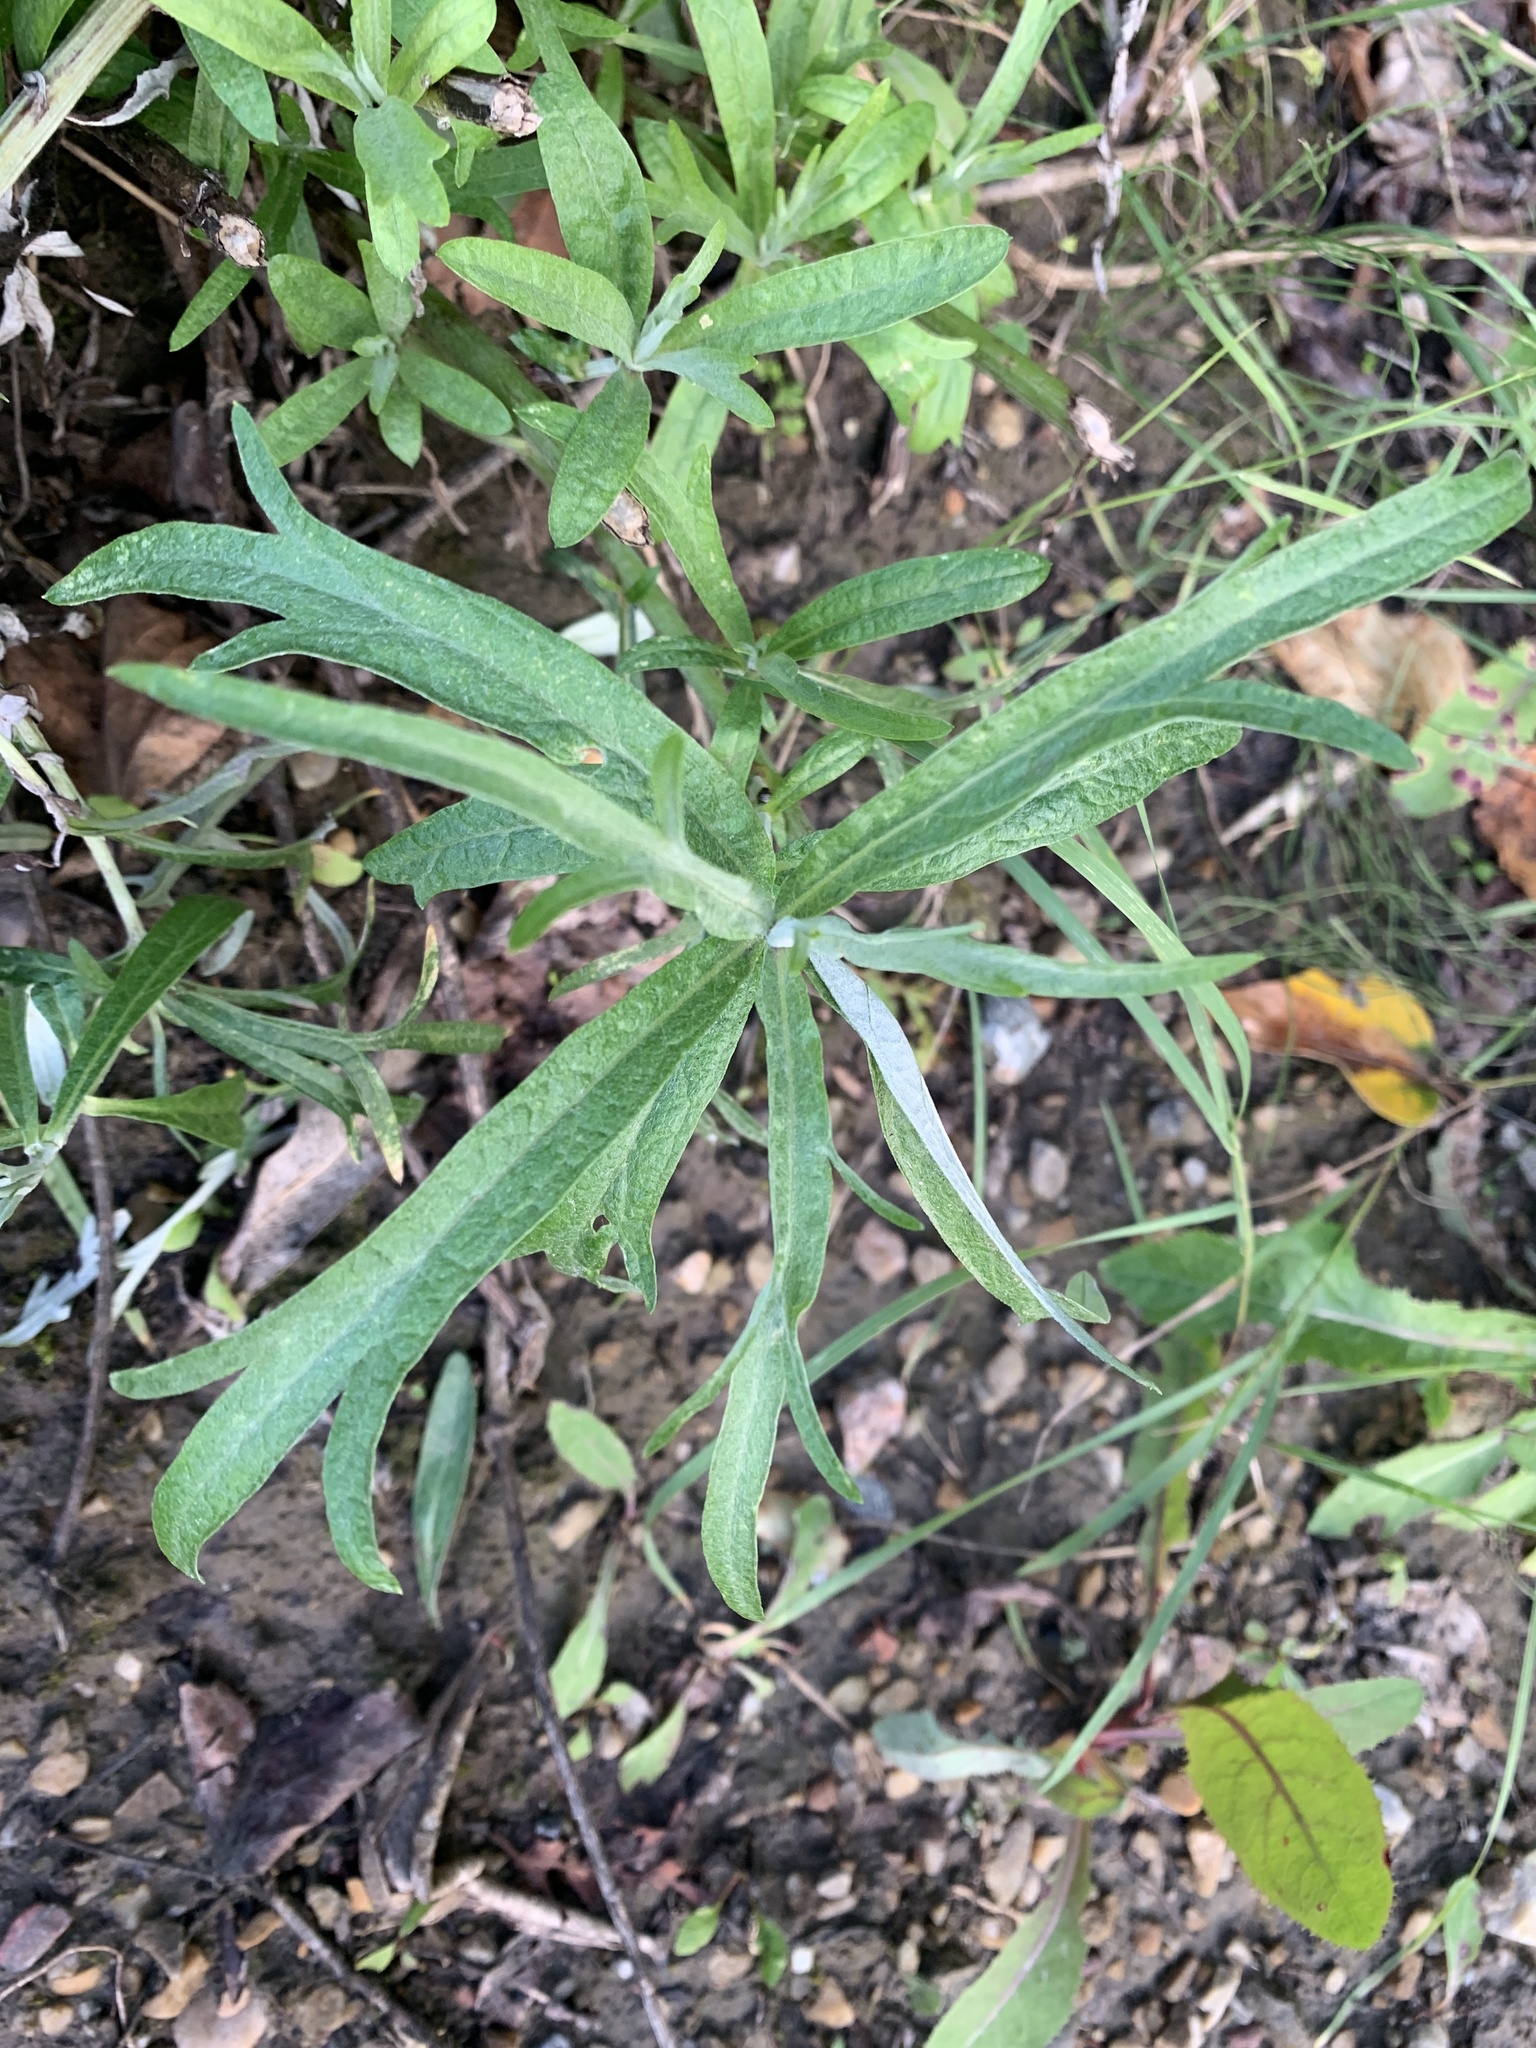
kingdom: Plantae
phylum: Tracheophyta
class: Magnoliopsida
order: Asterales
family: Asteraceae
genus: Artemisia
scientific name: Artemisia longifolia
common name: Long-leaved mugwort
